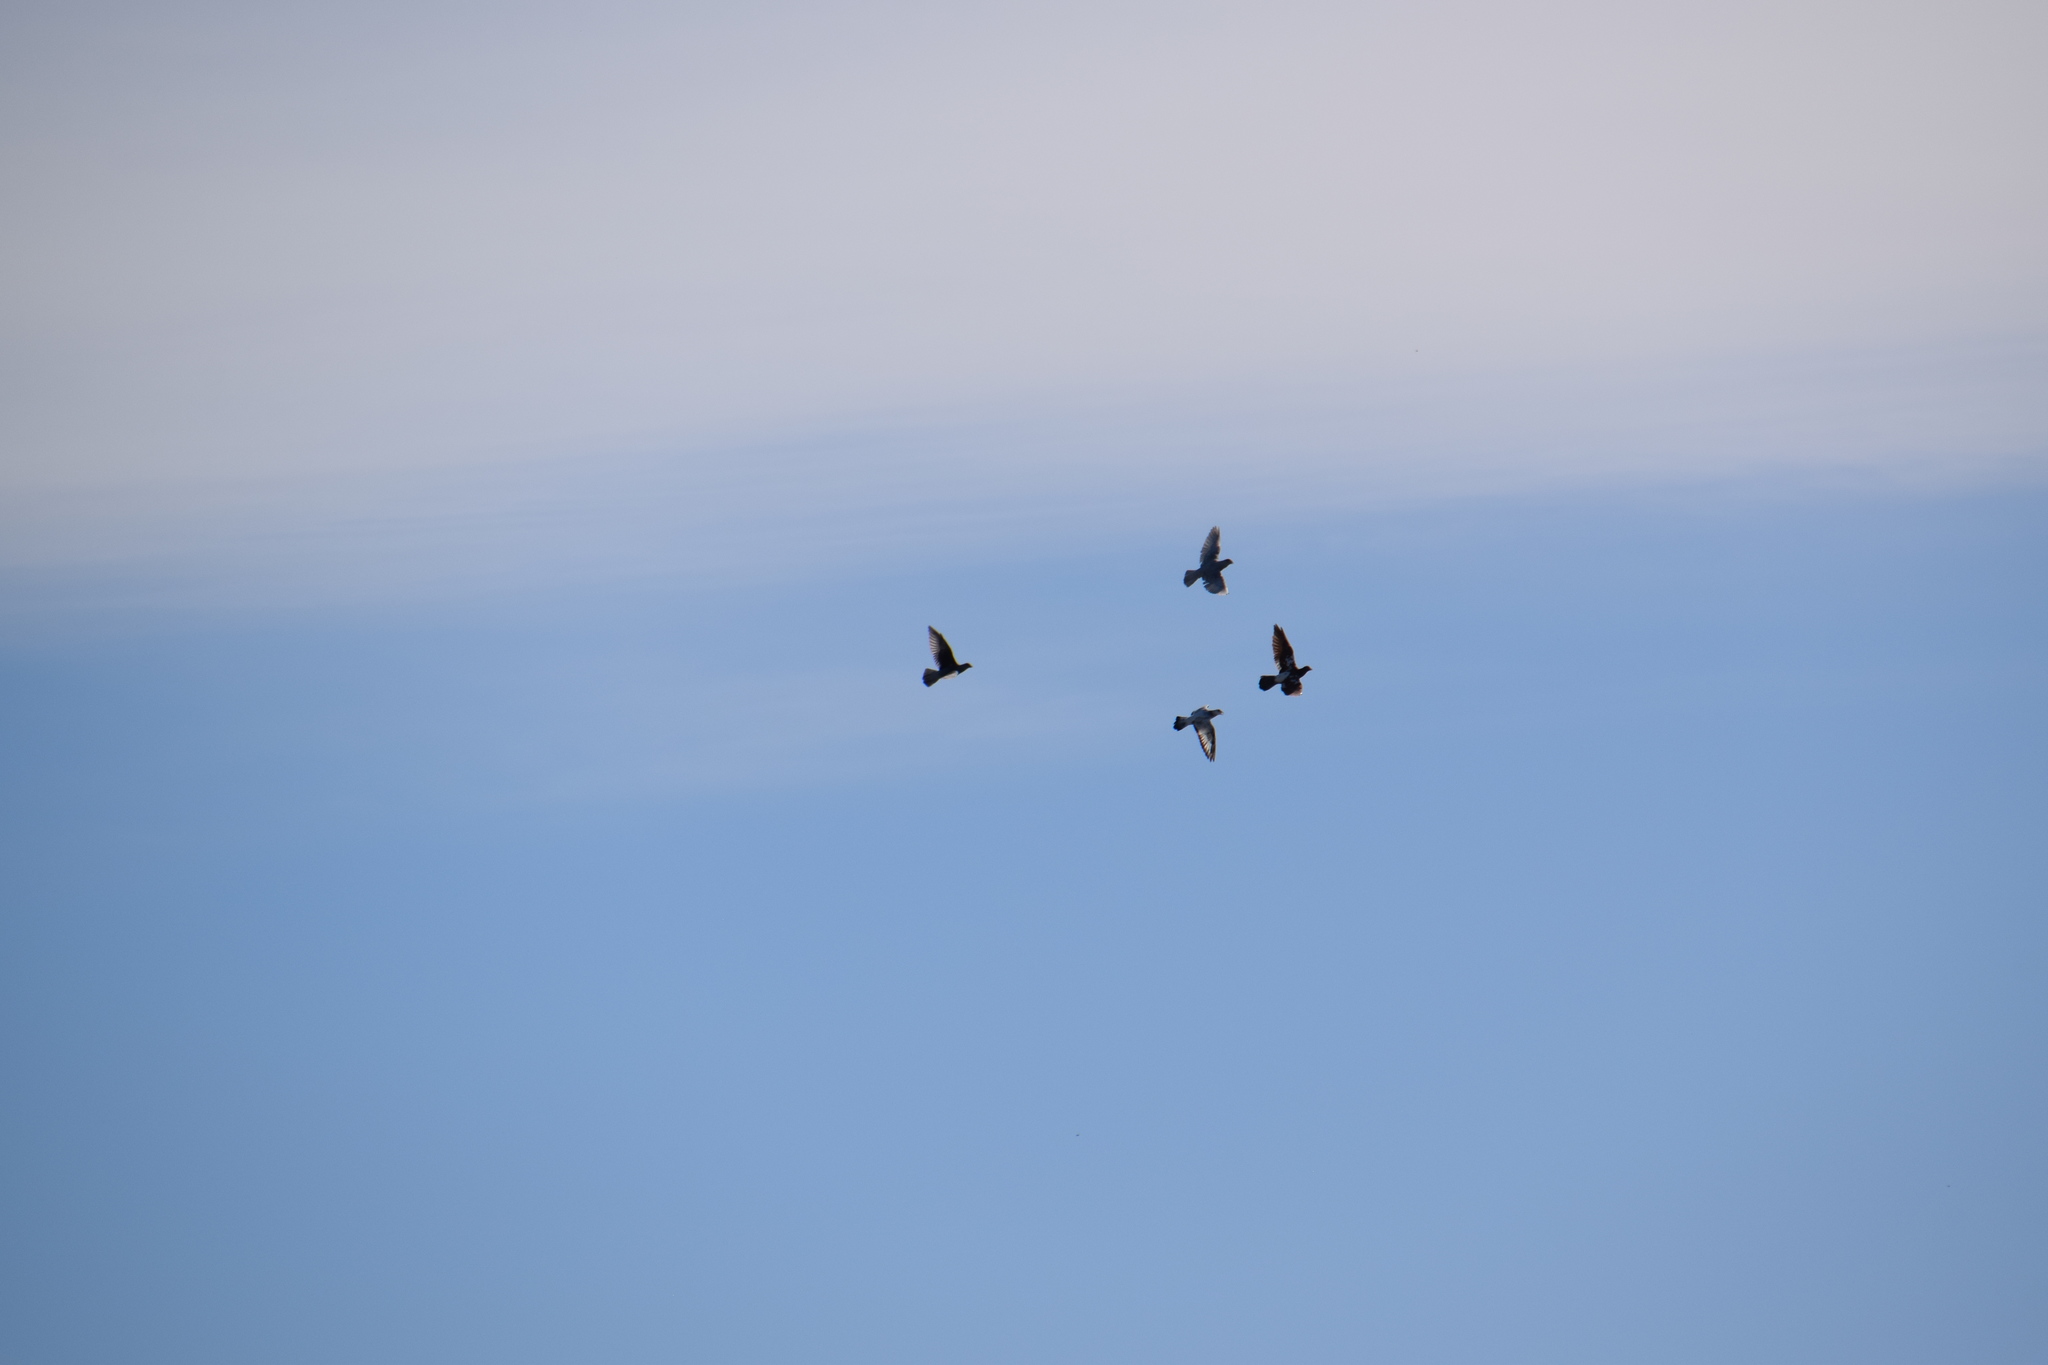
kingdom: Animalia
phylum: Chordata
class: Aves
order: Columbiformes
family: Columbidae
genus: Columba
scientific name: Columba livia
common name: Rock pigeon
